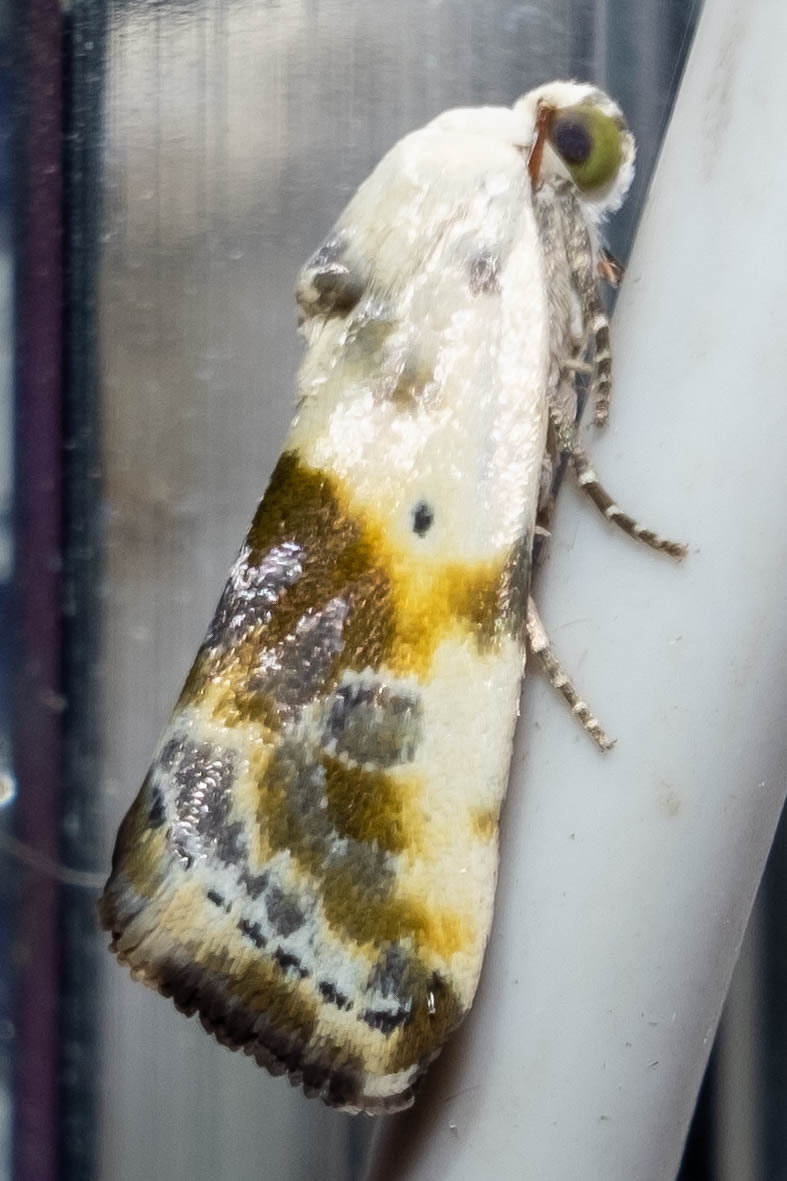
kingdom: Animalia
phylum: Arthropoda
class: Insecta
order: Lepidoptera
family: Noctuidae
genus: Acontia
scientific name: Acontia candefacta
